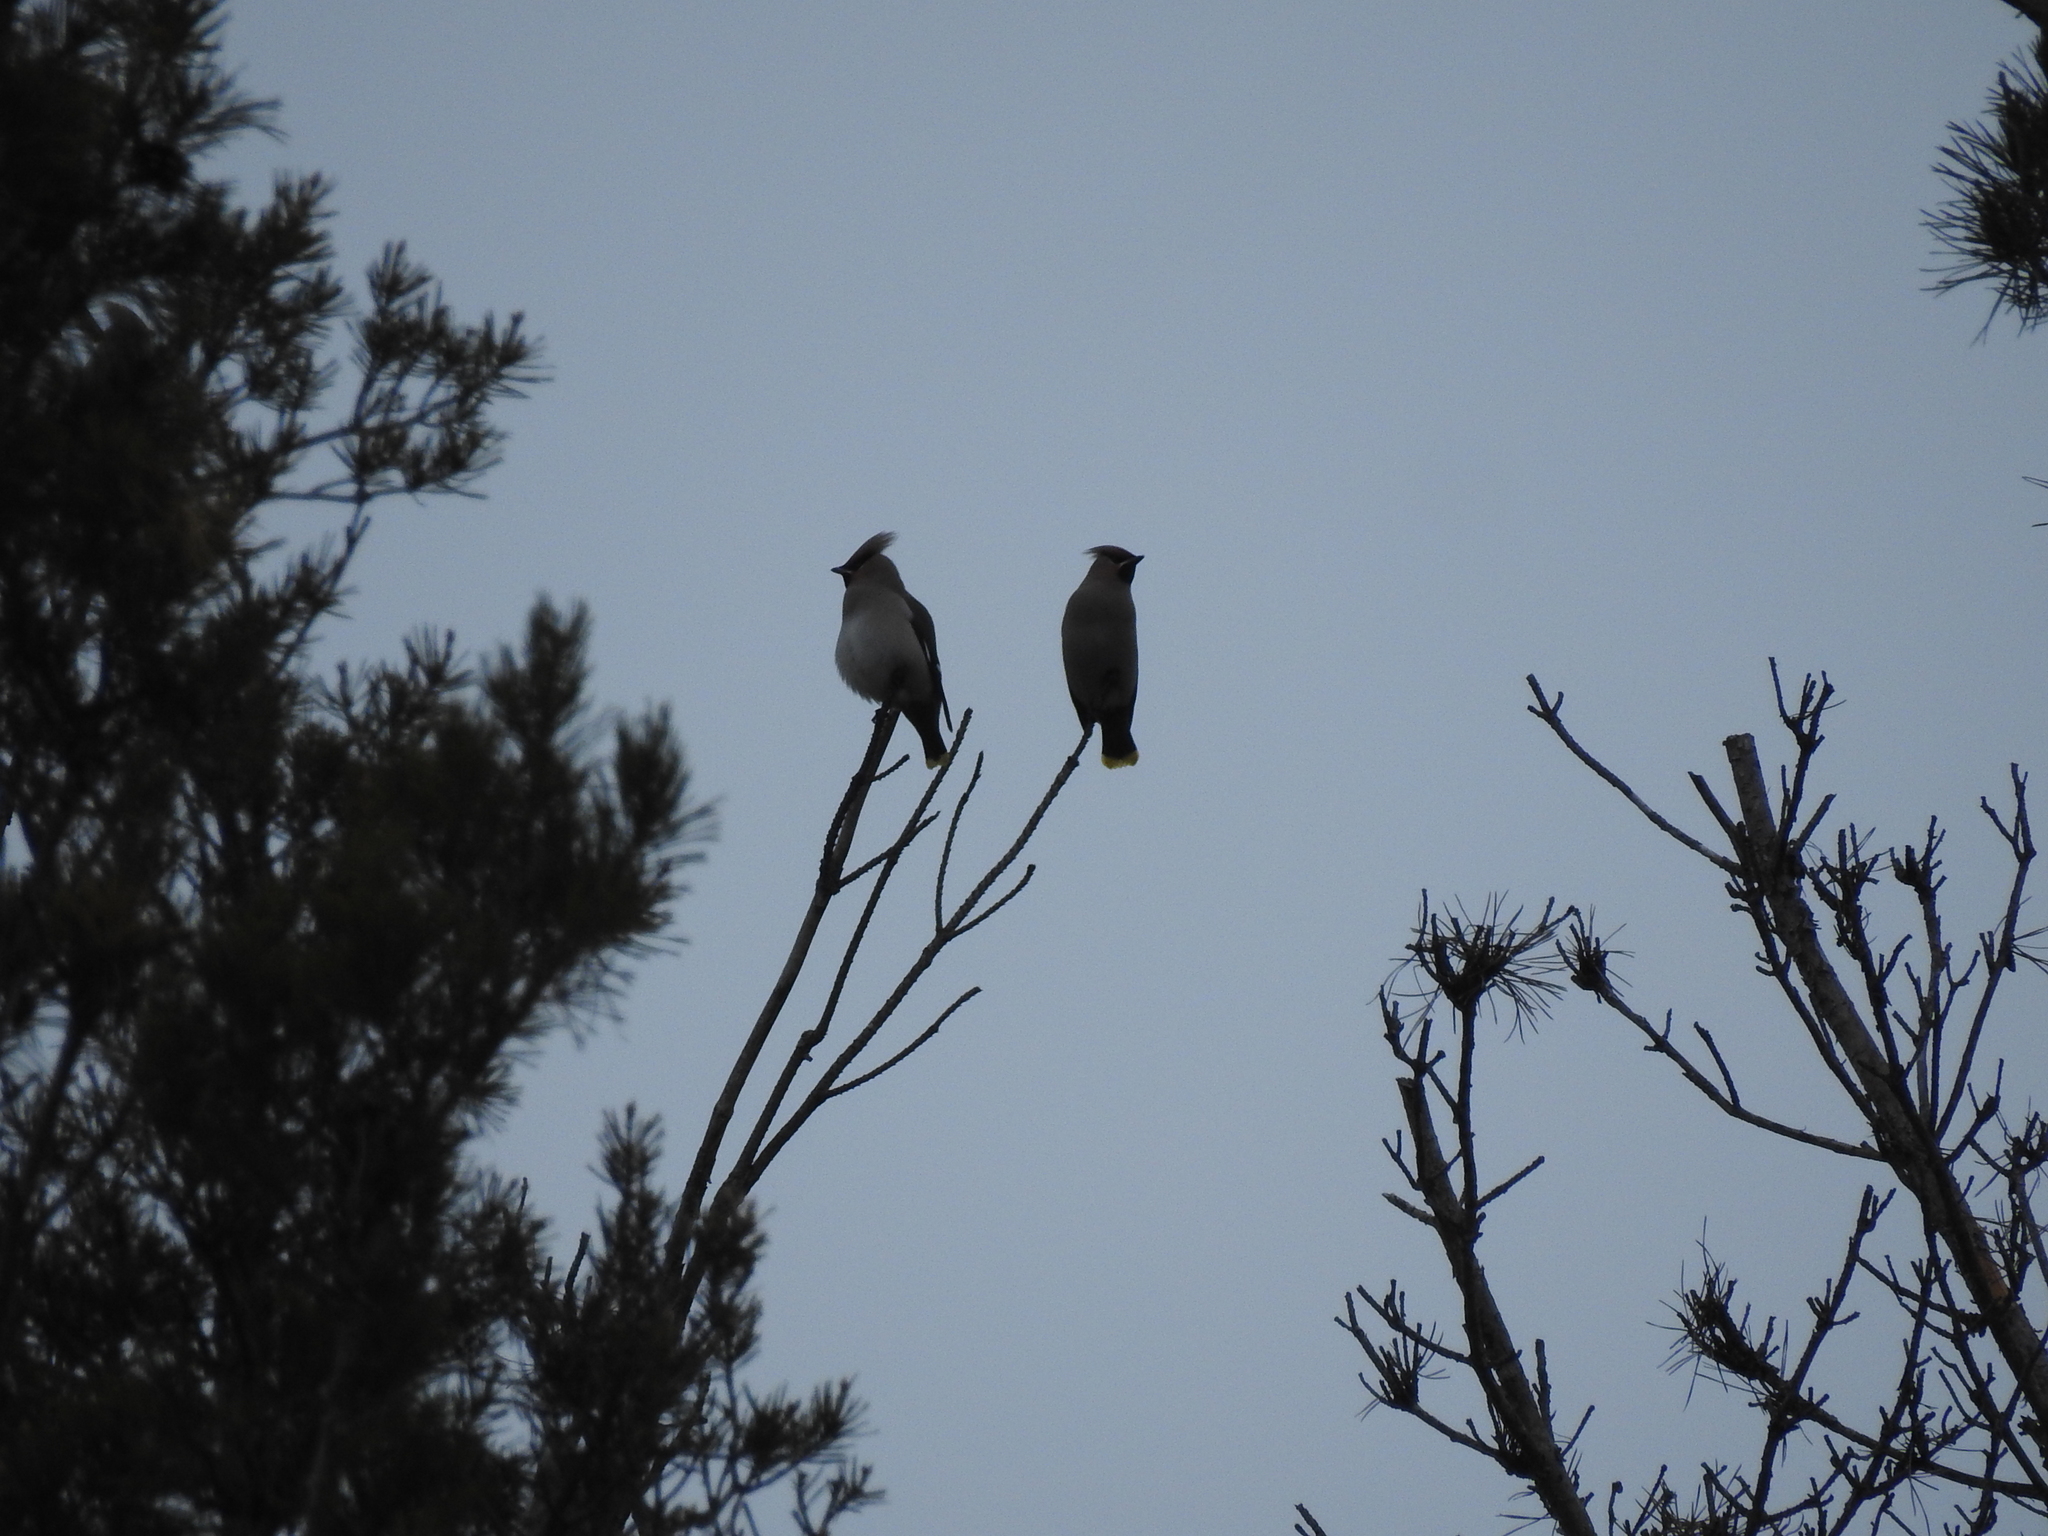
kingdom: Animalia
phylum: Chordata
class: Aves
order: Passeriformes
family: Bombycillidae
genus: Bombycilla
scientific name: Bombycilla garrulus
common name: Bohemian waxwing
